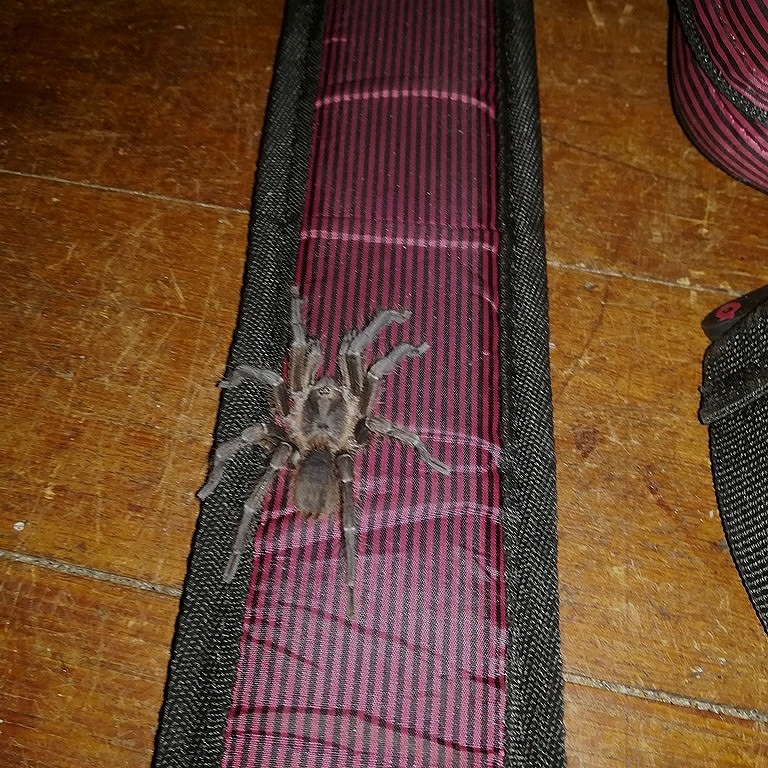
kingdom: Animalia
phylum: Arthropoda
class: Arachnida
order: Araneae
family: Theraphosidae
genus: Acanthoscurria
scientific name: Acanthoscurria theraphosoides
